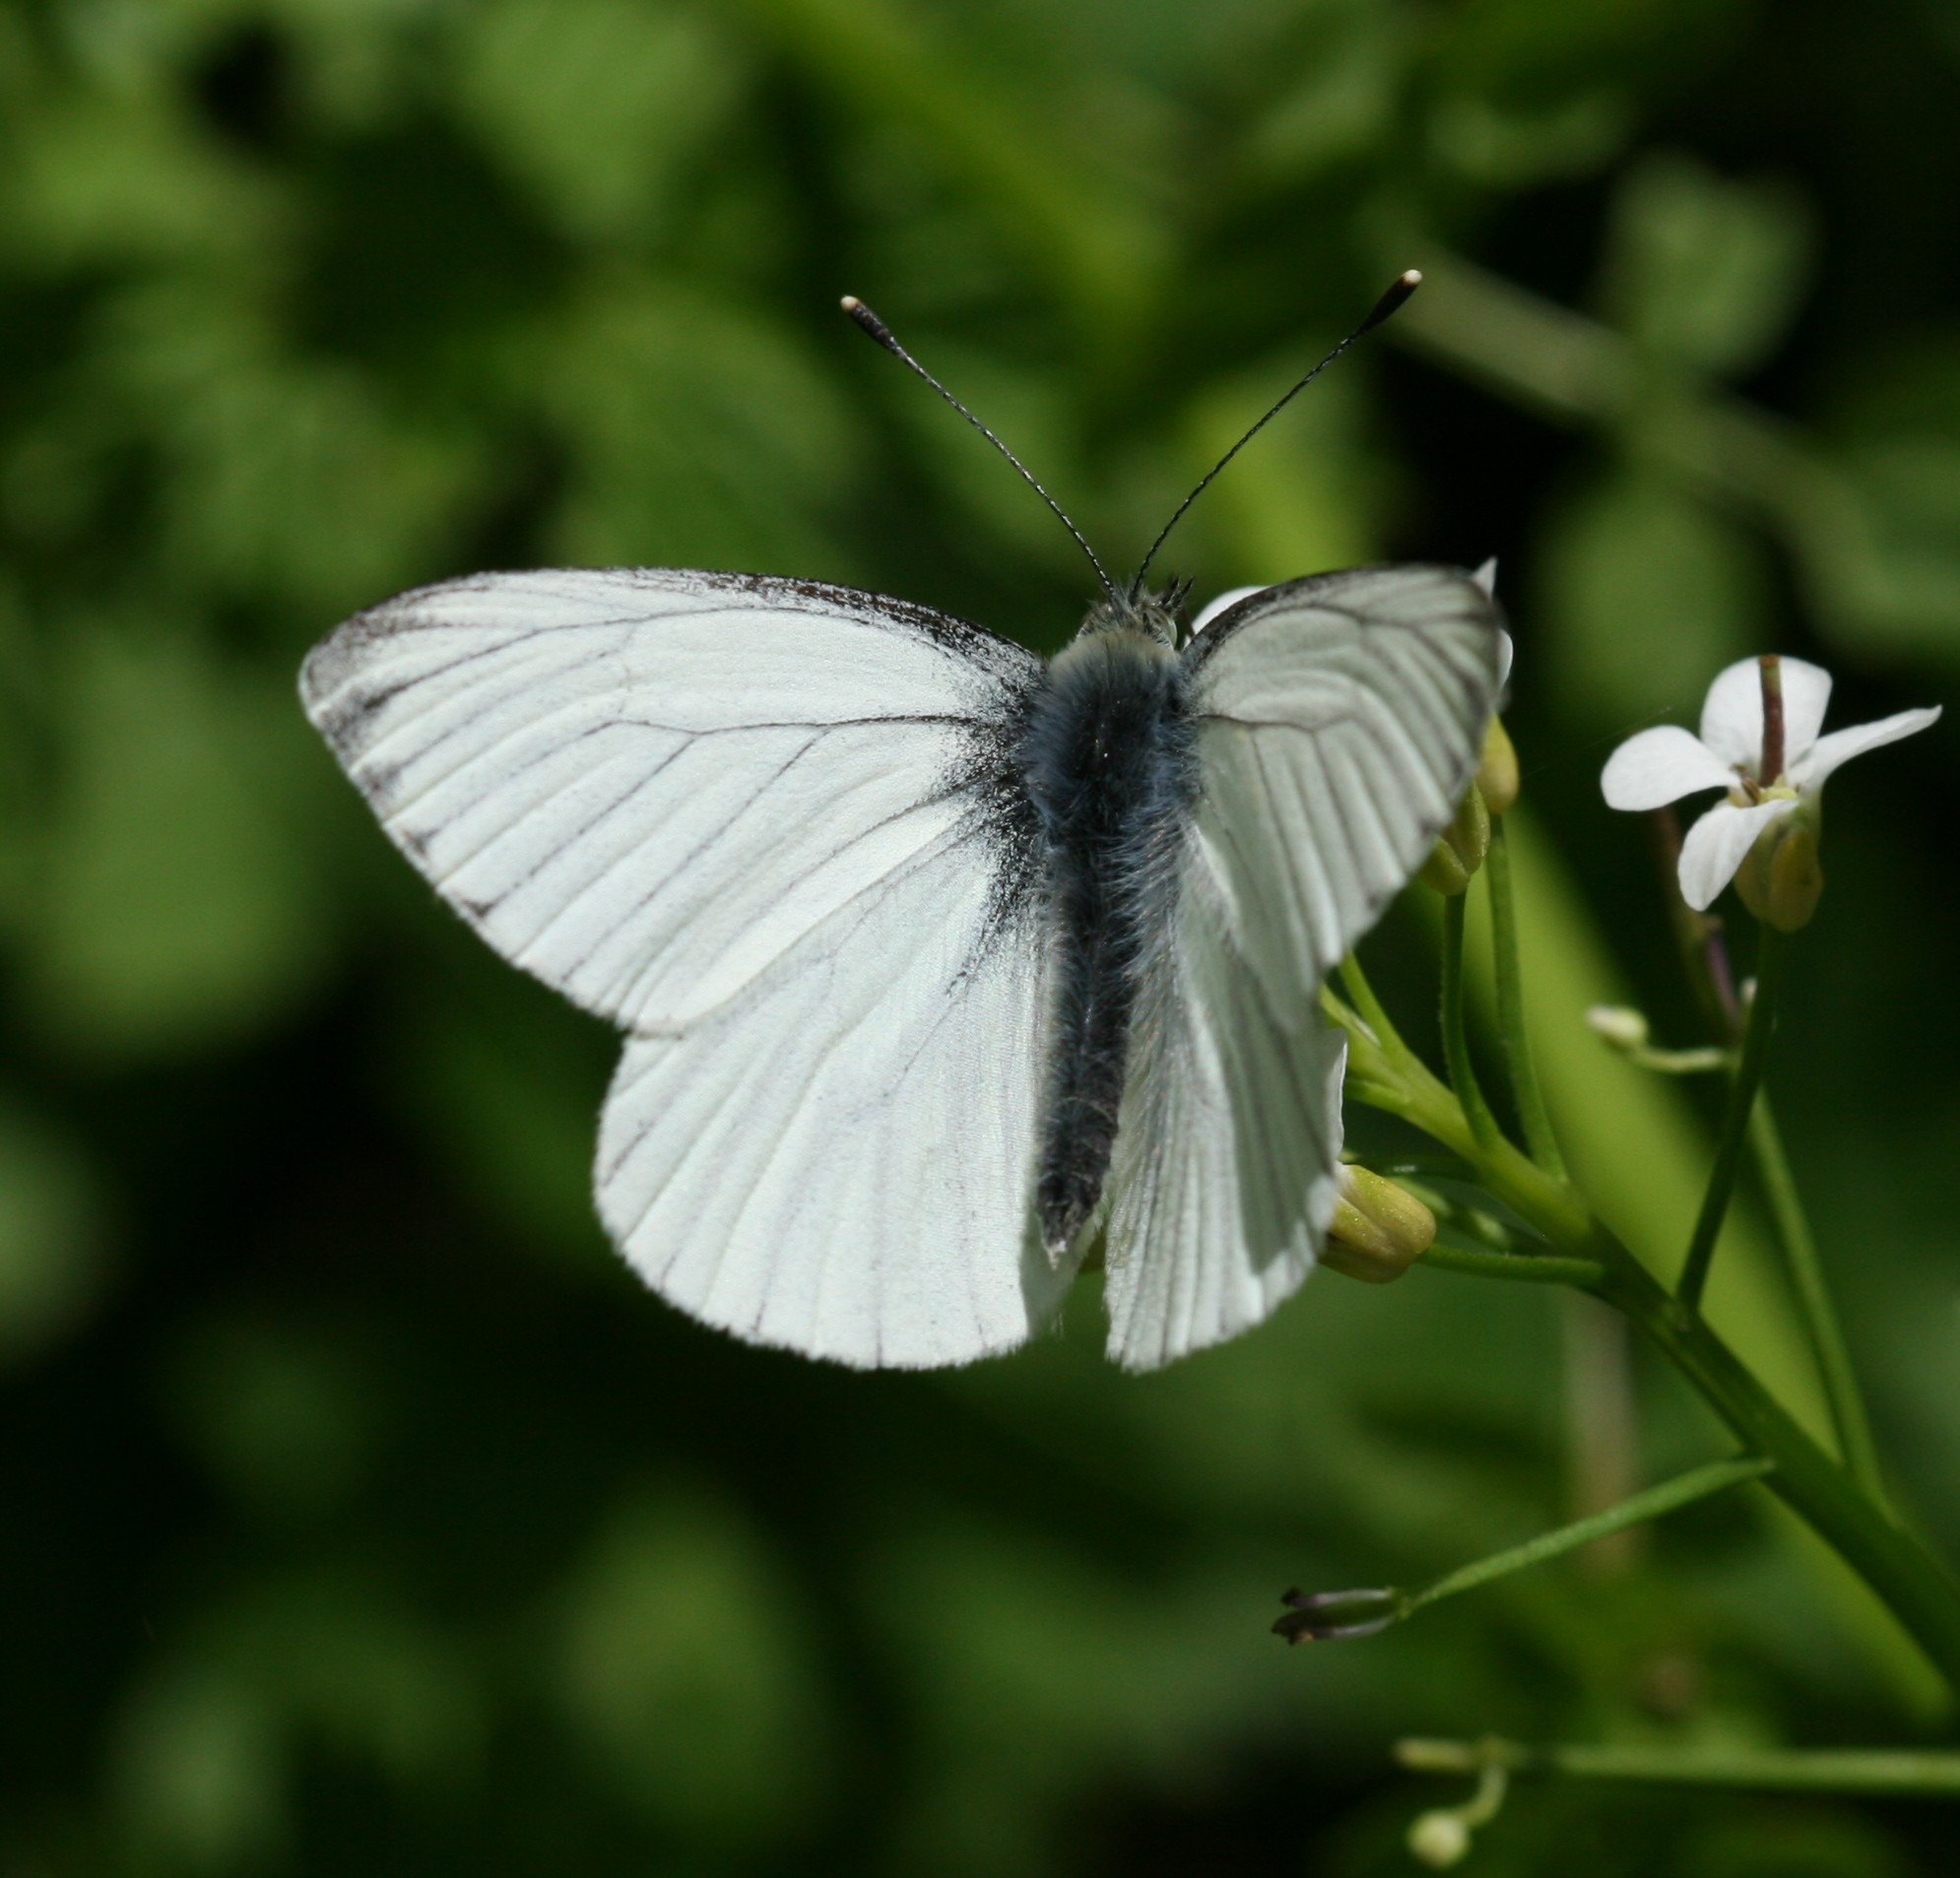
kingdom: Animalia
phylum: Arthropoda
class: Insecta
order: Lepidoptera
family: Pieridae
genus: Pieris
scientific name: Pieris napi
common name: Green-veined white
